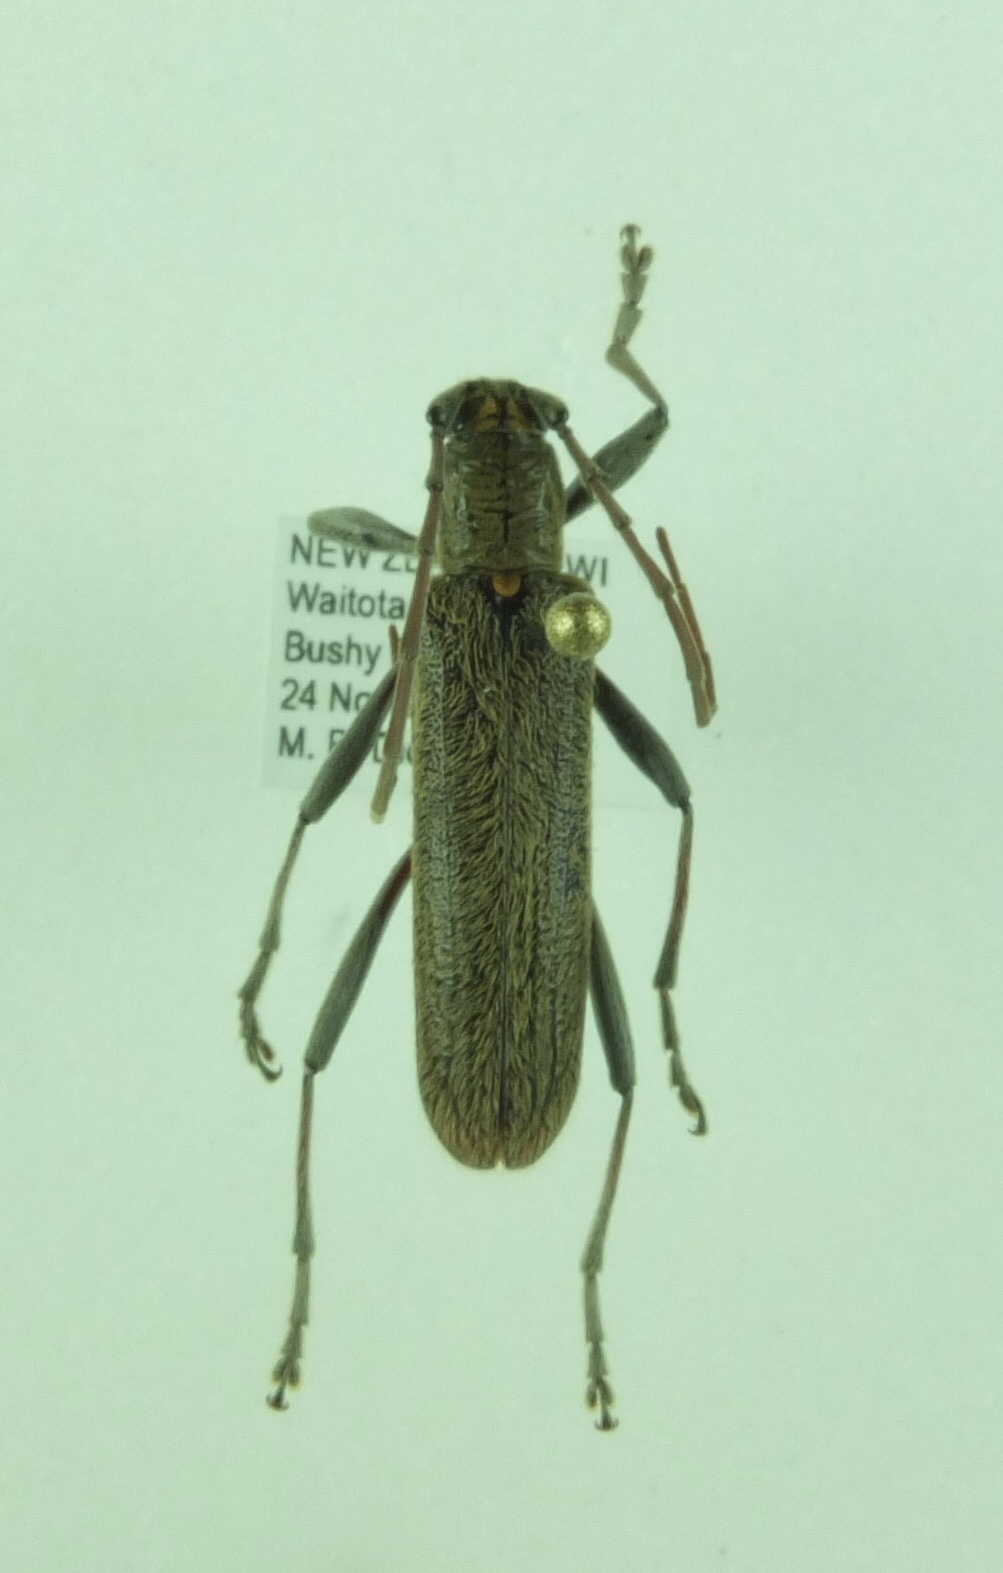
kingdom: Animalia
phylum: Arthropoda
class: Insecta
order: Coleoptera
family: Cerambycidae
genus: Oemona
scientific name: Oemona hirta
